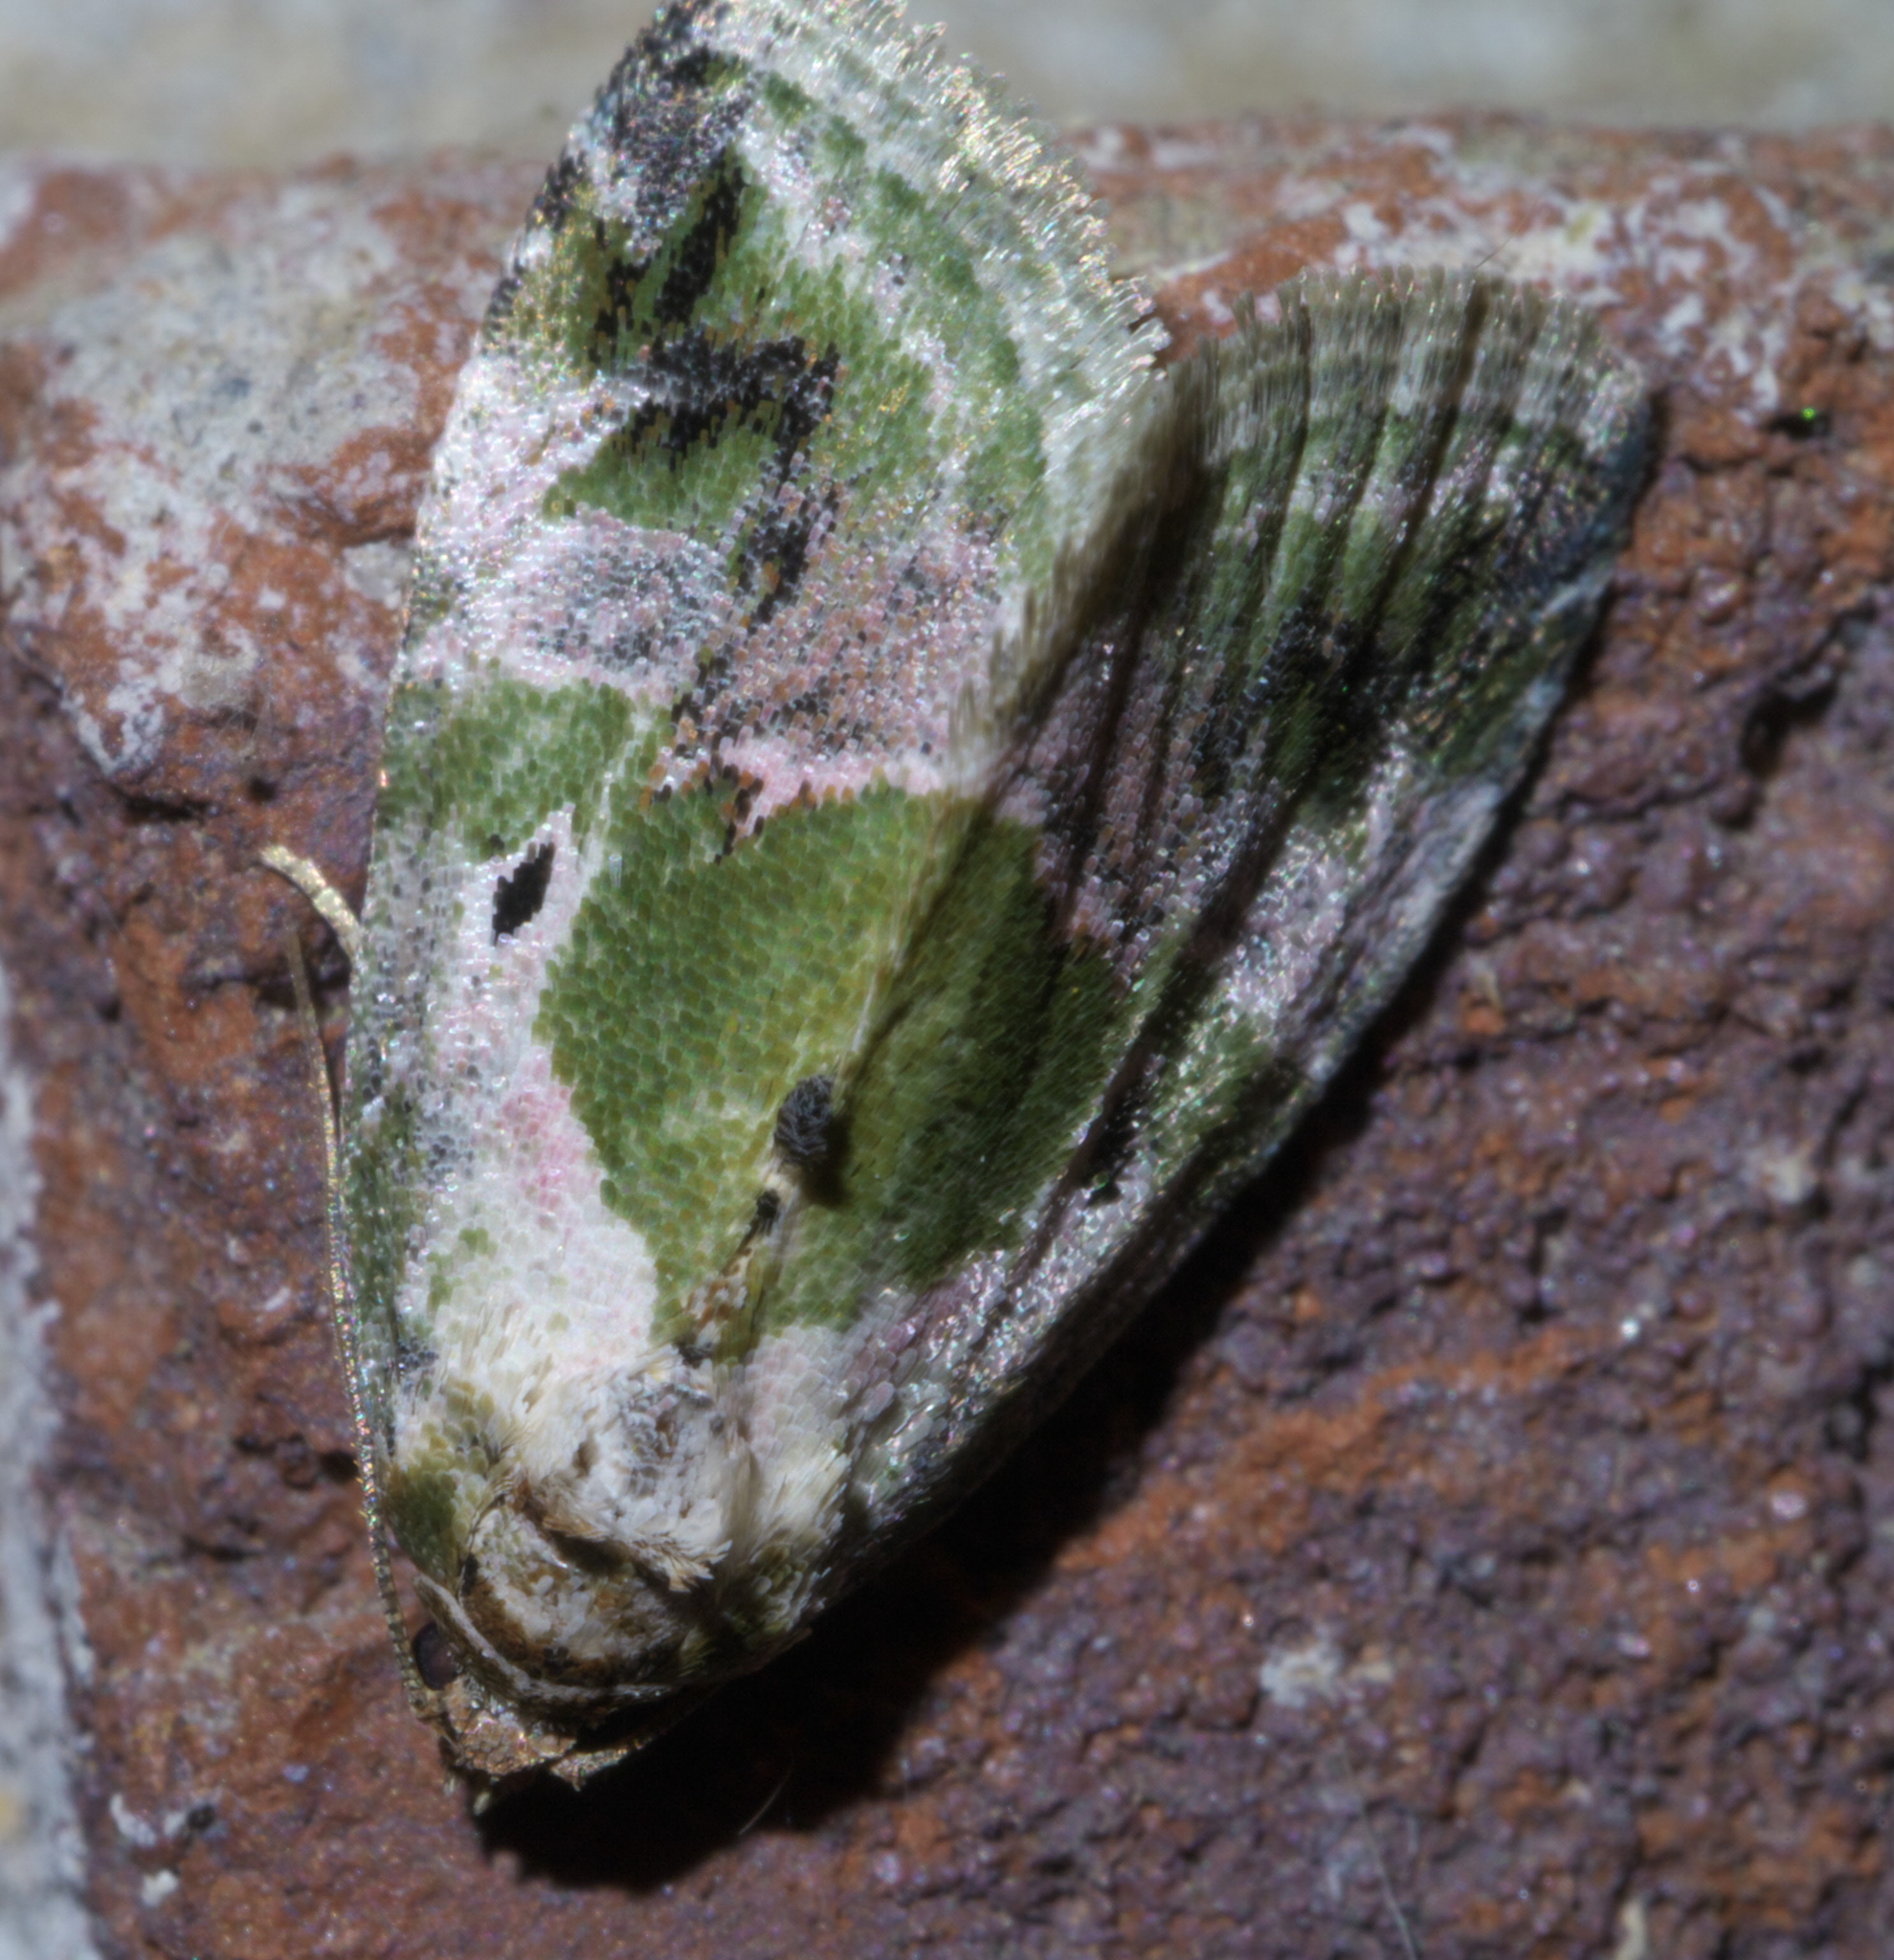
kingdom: Animalia
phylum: Arthropoda
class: Insecta
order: Lepidoptera
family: Noctuidae
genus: Maliattha
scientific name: Maliattha synochitis
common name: Black-dotted glyph
